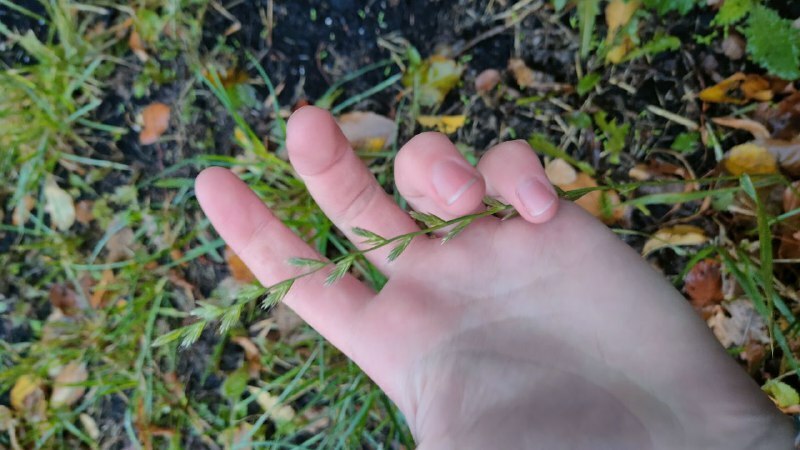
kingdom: Plantae
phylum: Tracheophyta
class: Liliopsida
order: Poales
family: Poaceae
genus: Lolium
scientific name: Lolium multiflorum
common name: Annual ryegrass
